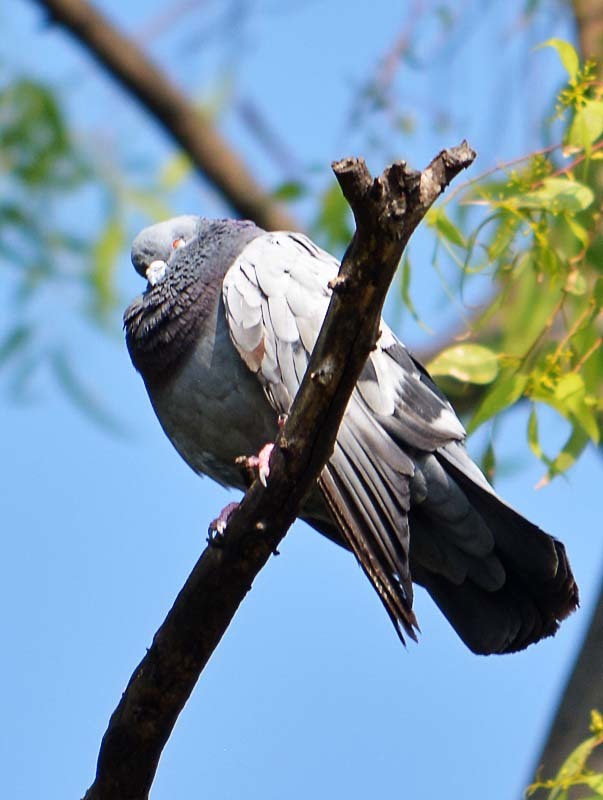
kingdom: Animalia
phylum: Chordata
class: Aves
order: Columbiformes
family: Columbidae
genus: Columba
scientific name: Columba livia
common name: Rock pigeon
